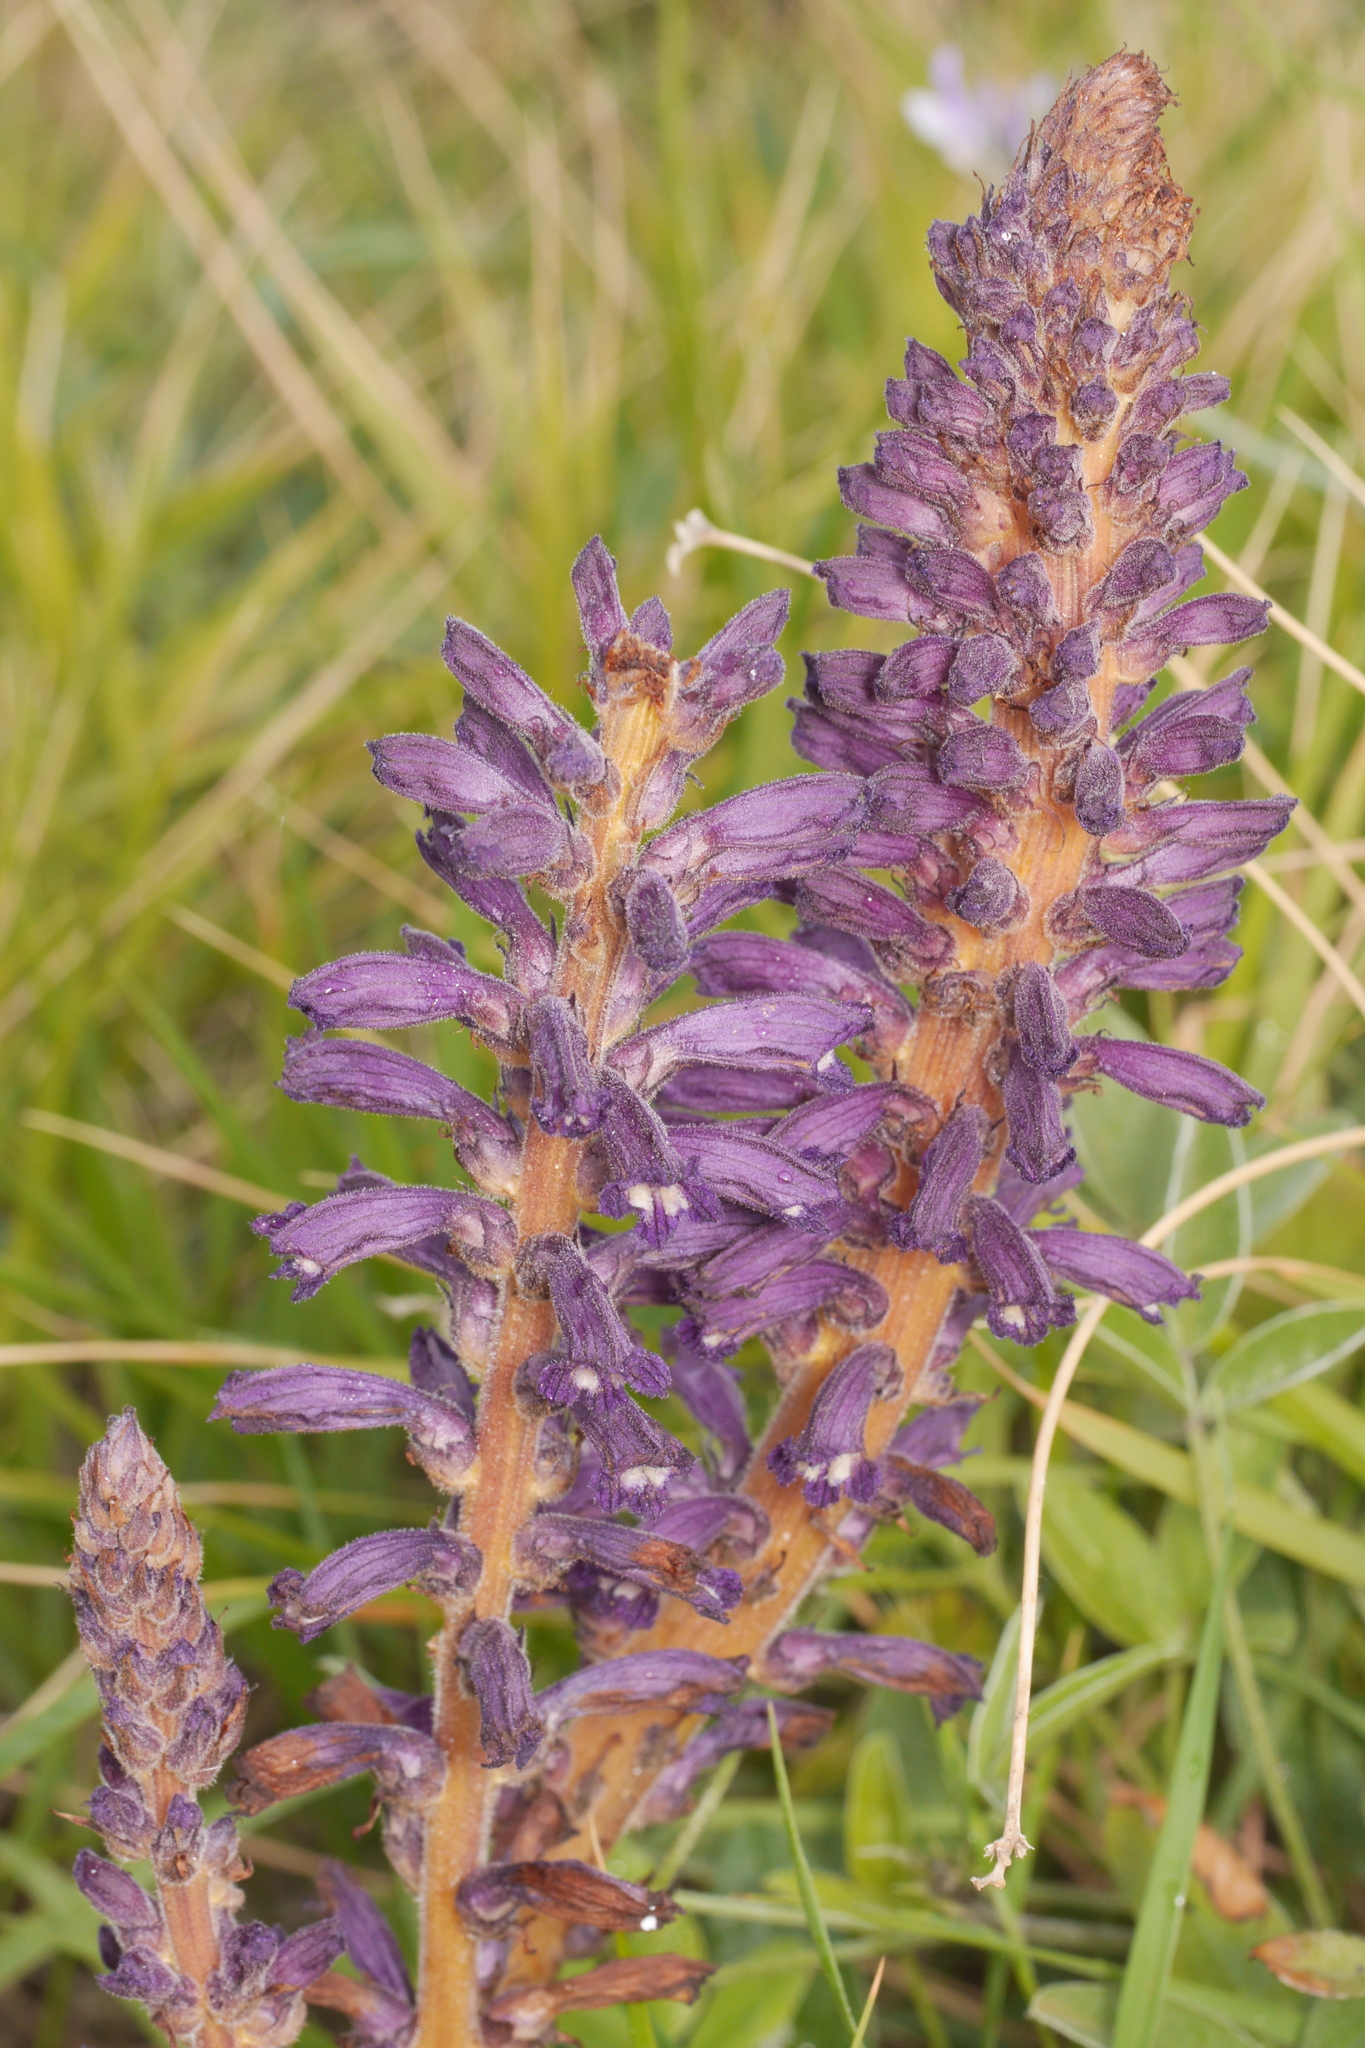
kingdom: Plantae
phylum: Tracheophyta
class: Magnoliopsida
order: Lamiales
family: Orobanchaceae
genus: Phelipanche
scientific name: Phelipanche lavandulacea
